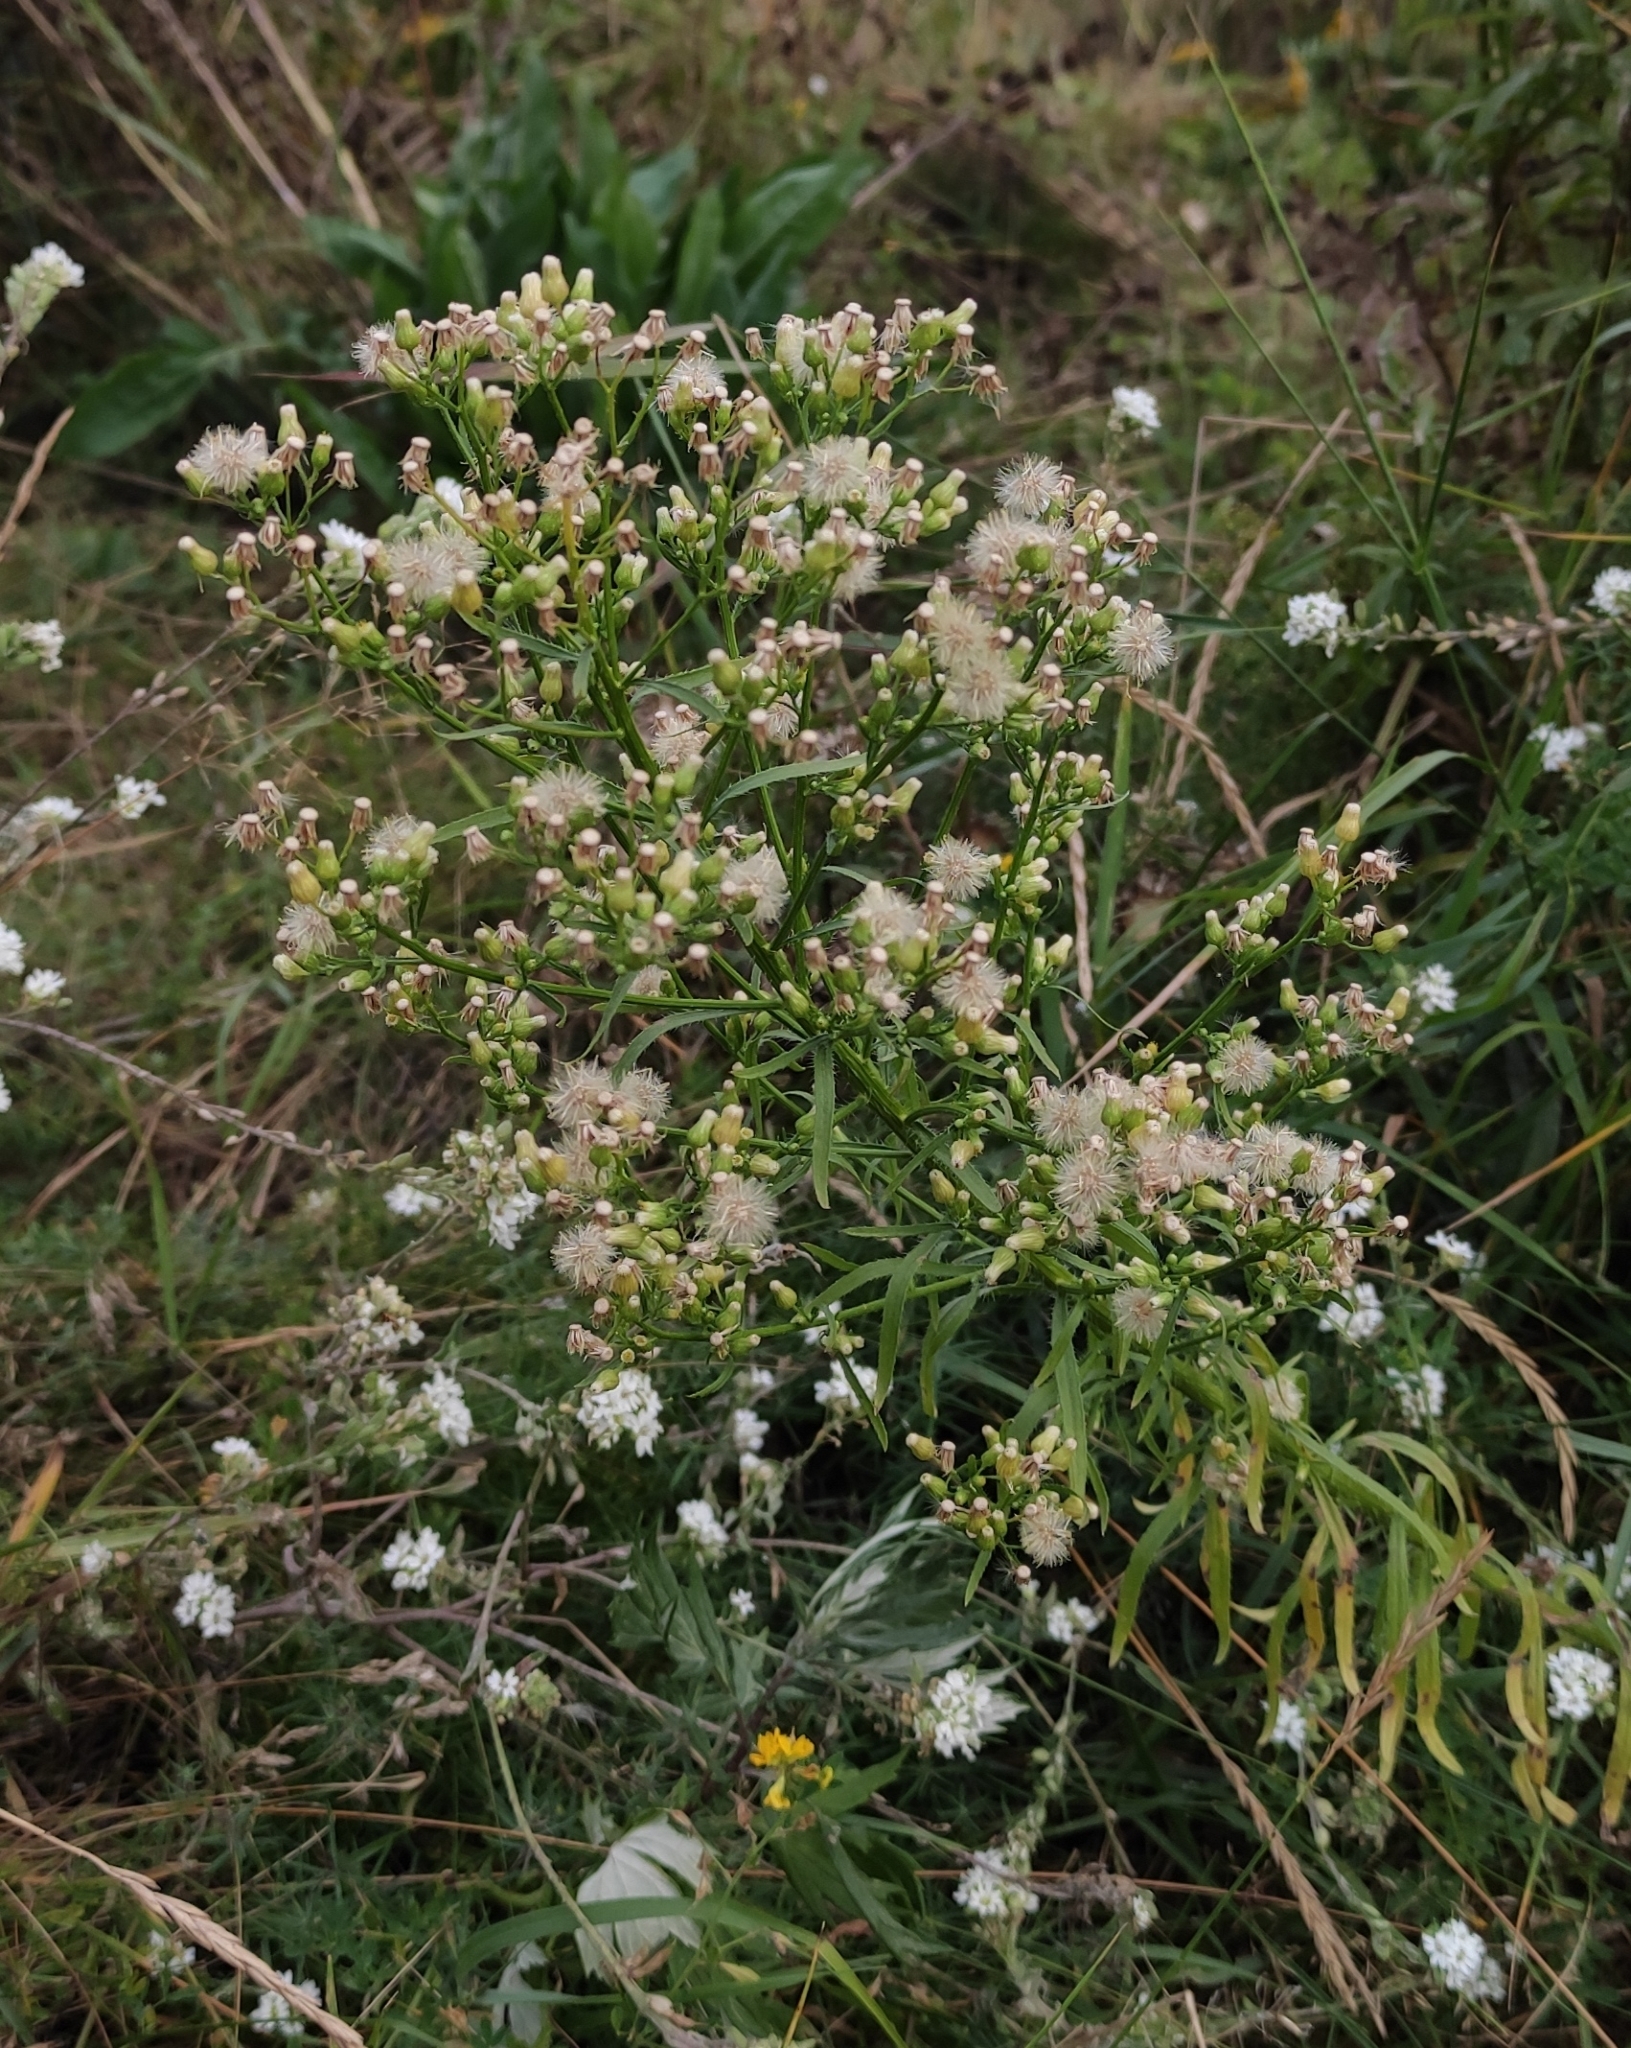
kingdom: Plantae
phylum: Tracheophyta
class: Magnoliopsida
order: Asterales
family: Asteraceae
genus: Erigeron
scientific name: Erigeron canadensis
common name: Canadian fleabane
